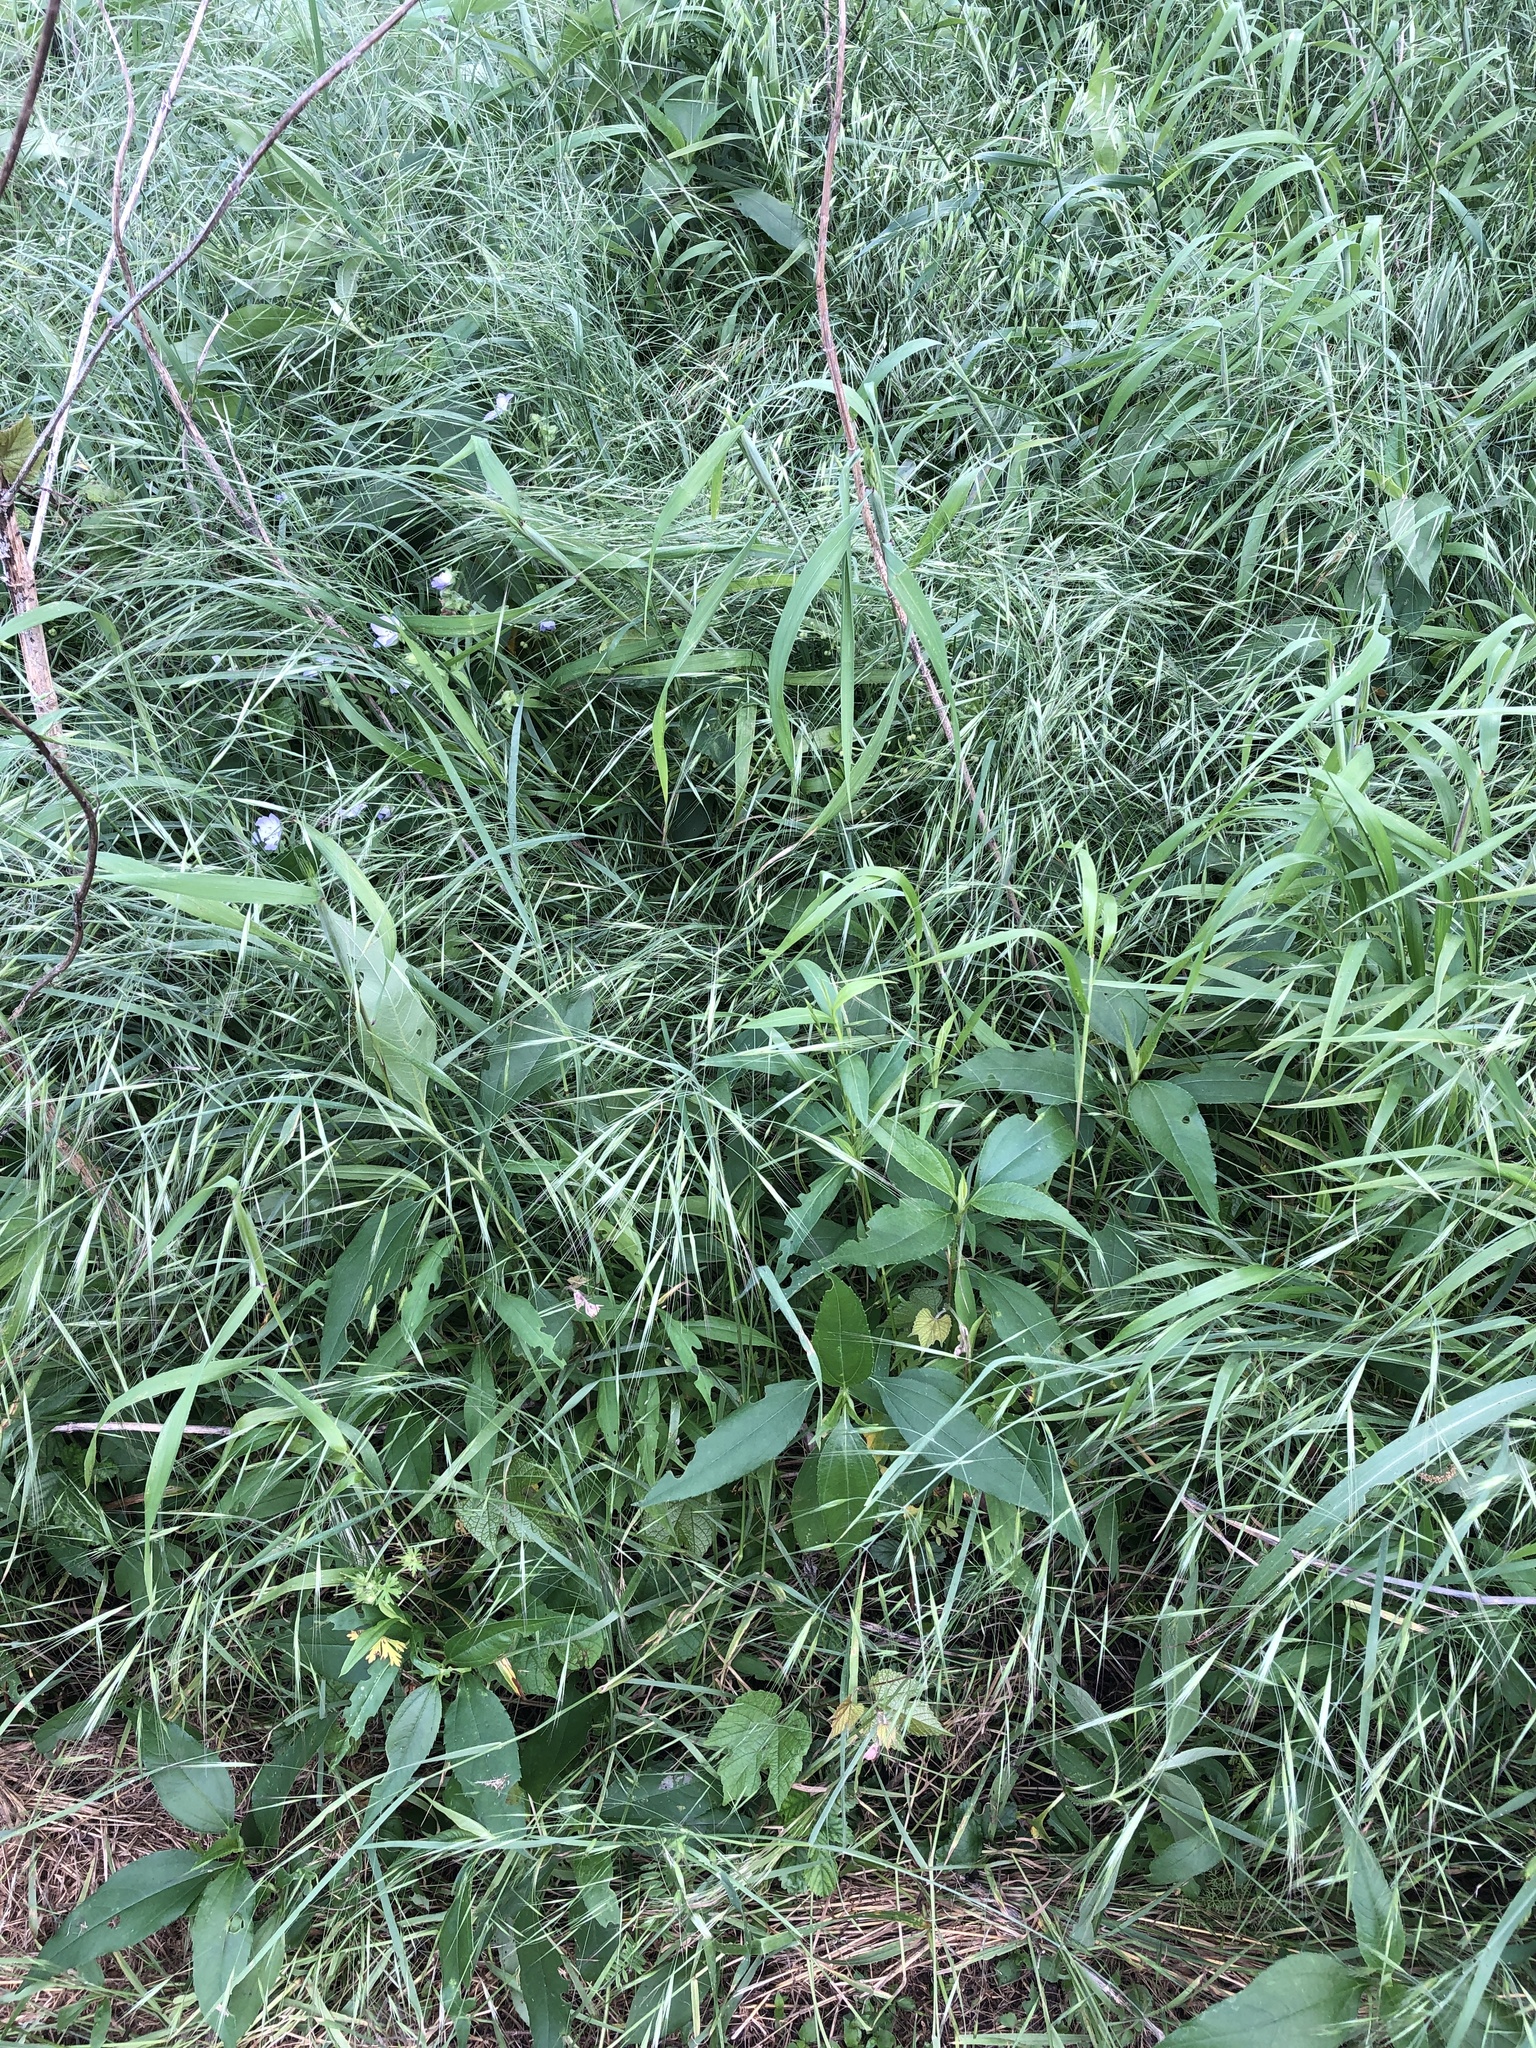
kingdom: Plantae
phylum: Tracheophyta
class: Liliopsida
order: Poales
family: Poaceae
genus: Bromus
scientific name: Bromus diandrus
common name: Ripgut brome
